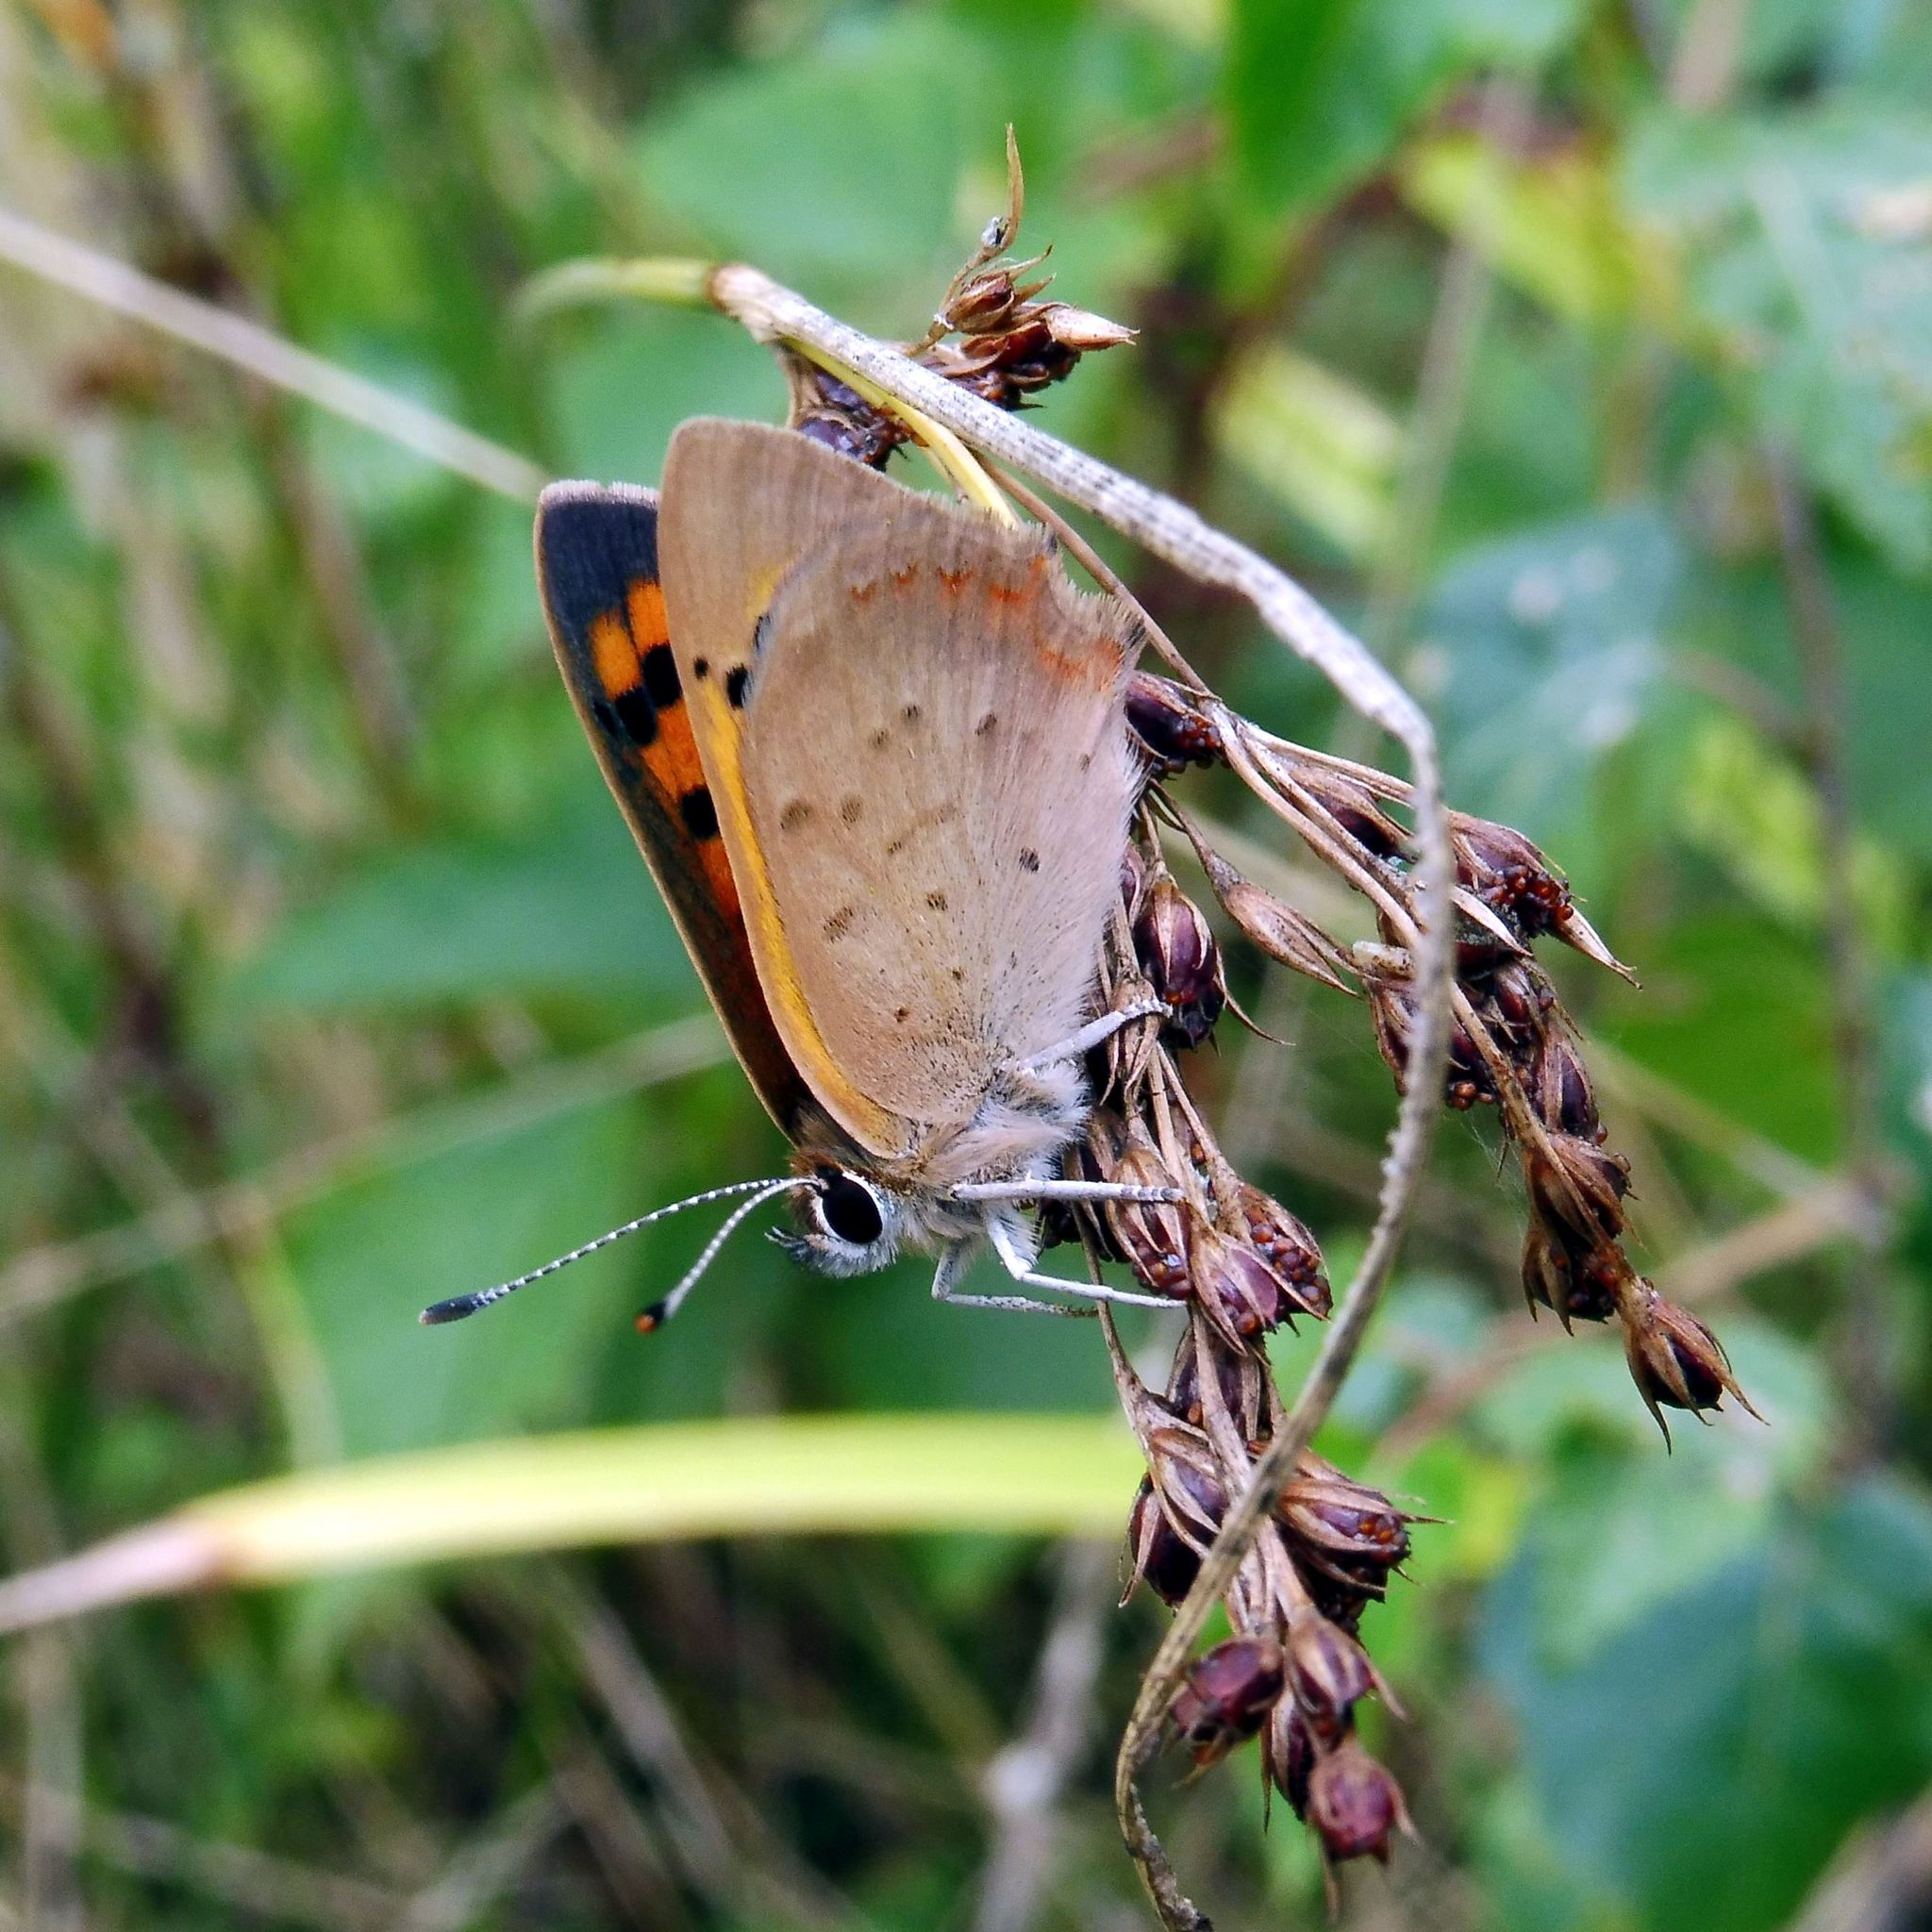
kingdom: Animalia
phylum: Arthropoda
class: Insecta
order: Lepidoptera
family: Lycaenidae
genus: Lycaena
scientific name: Lycaena phlaeas
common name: Small copper
